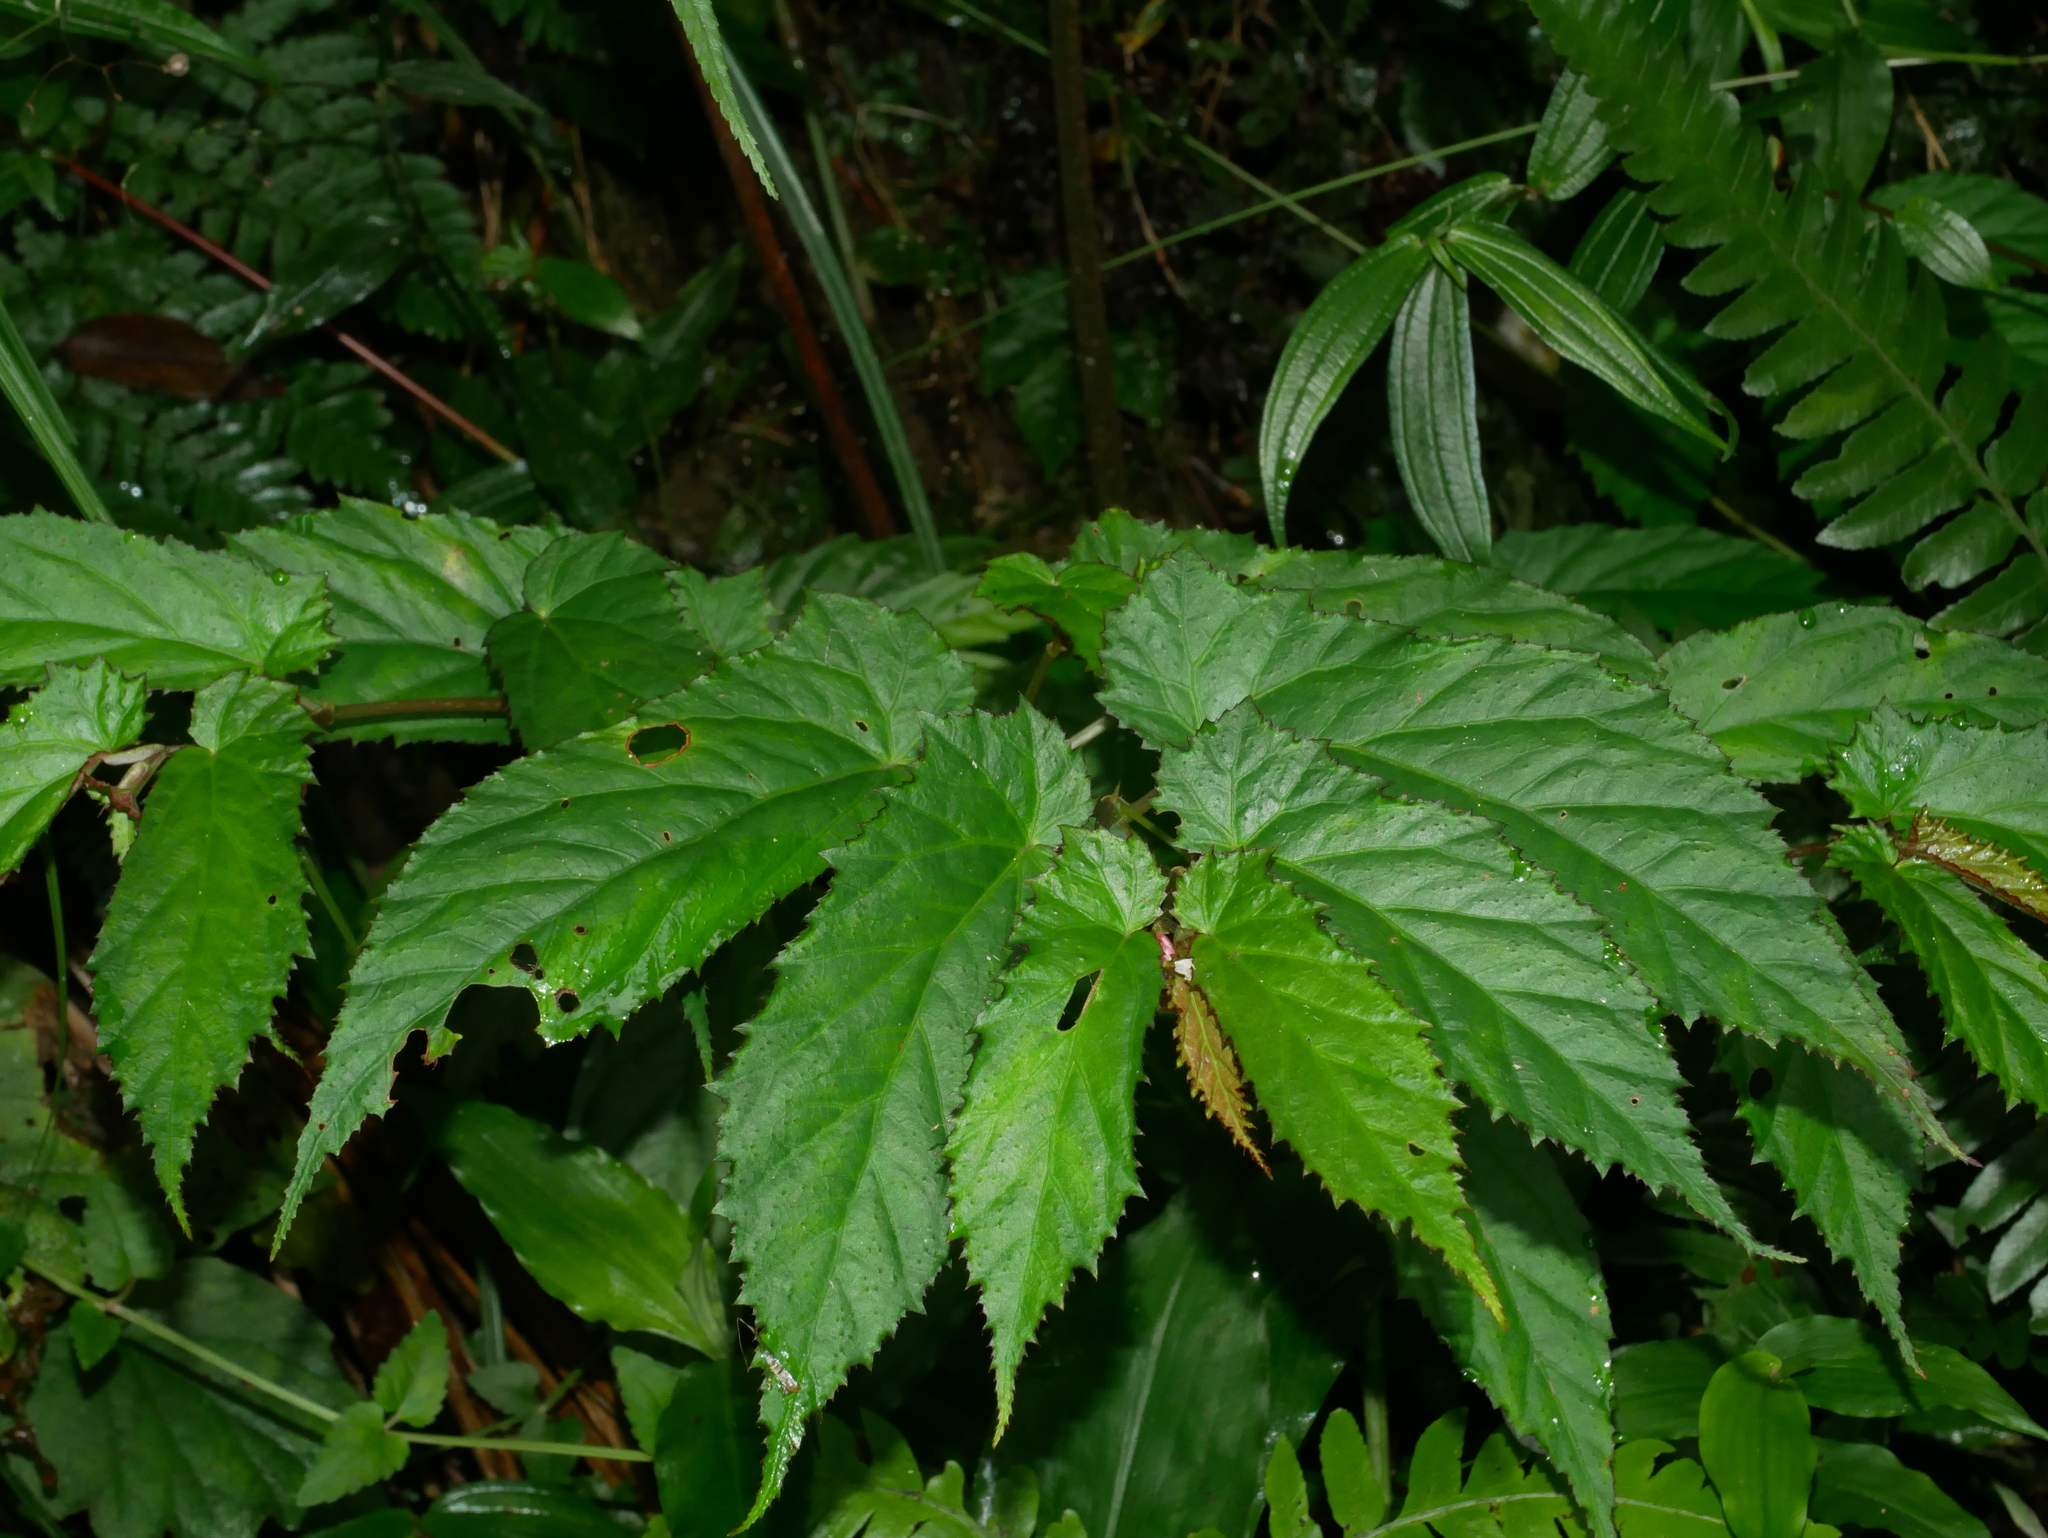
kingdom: Plantae
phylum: Tracheophyta
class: Magnoliopsida
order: Cucurbitales
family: Begoniaceae
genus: Begonia
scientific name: Begonia taiwaniana
